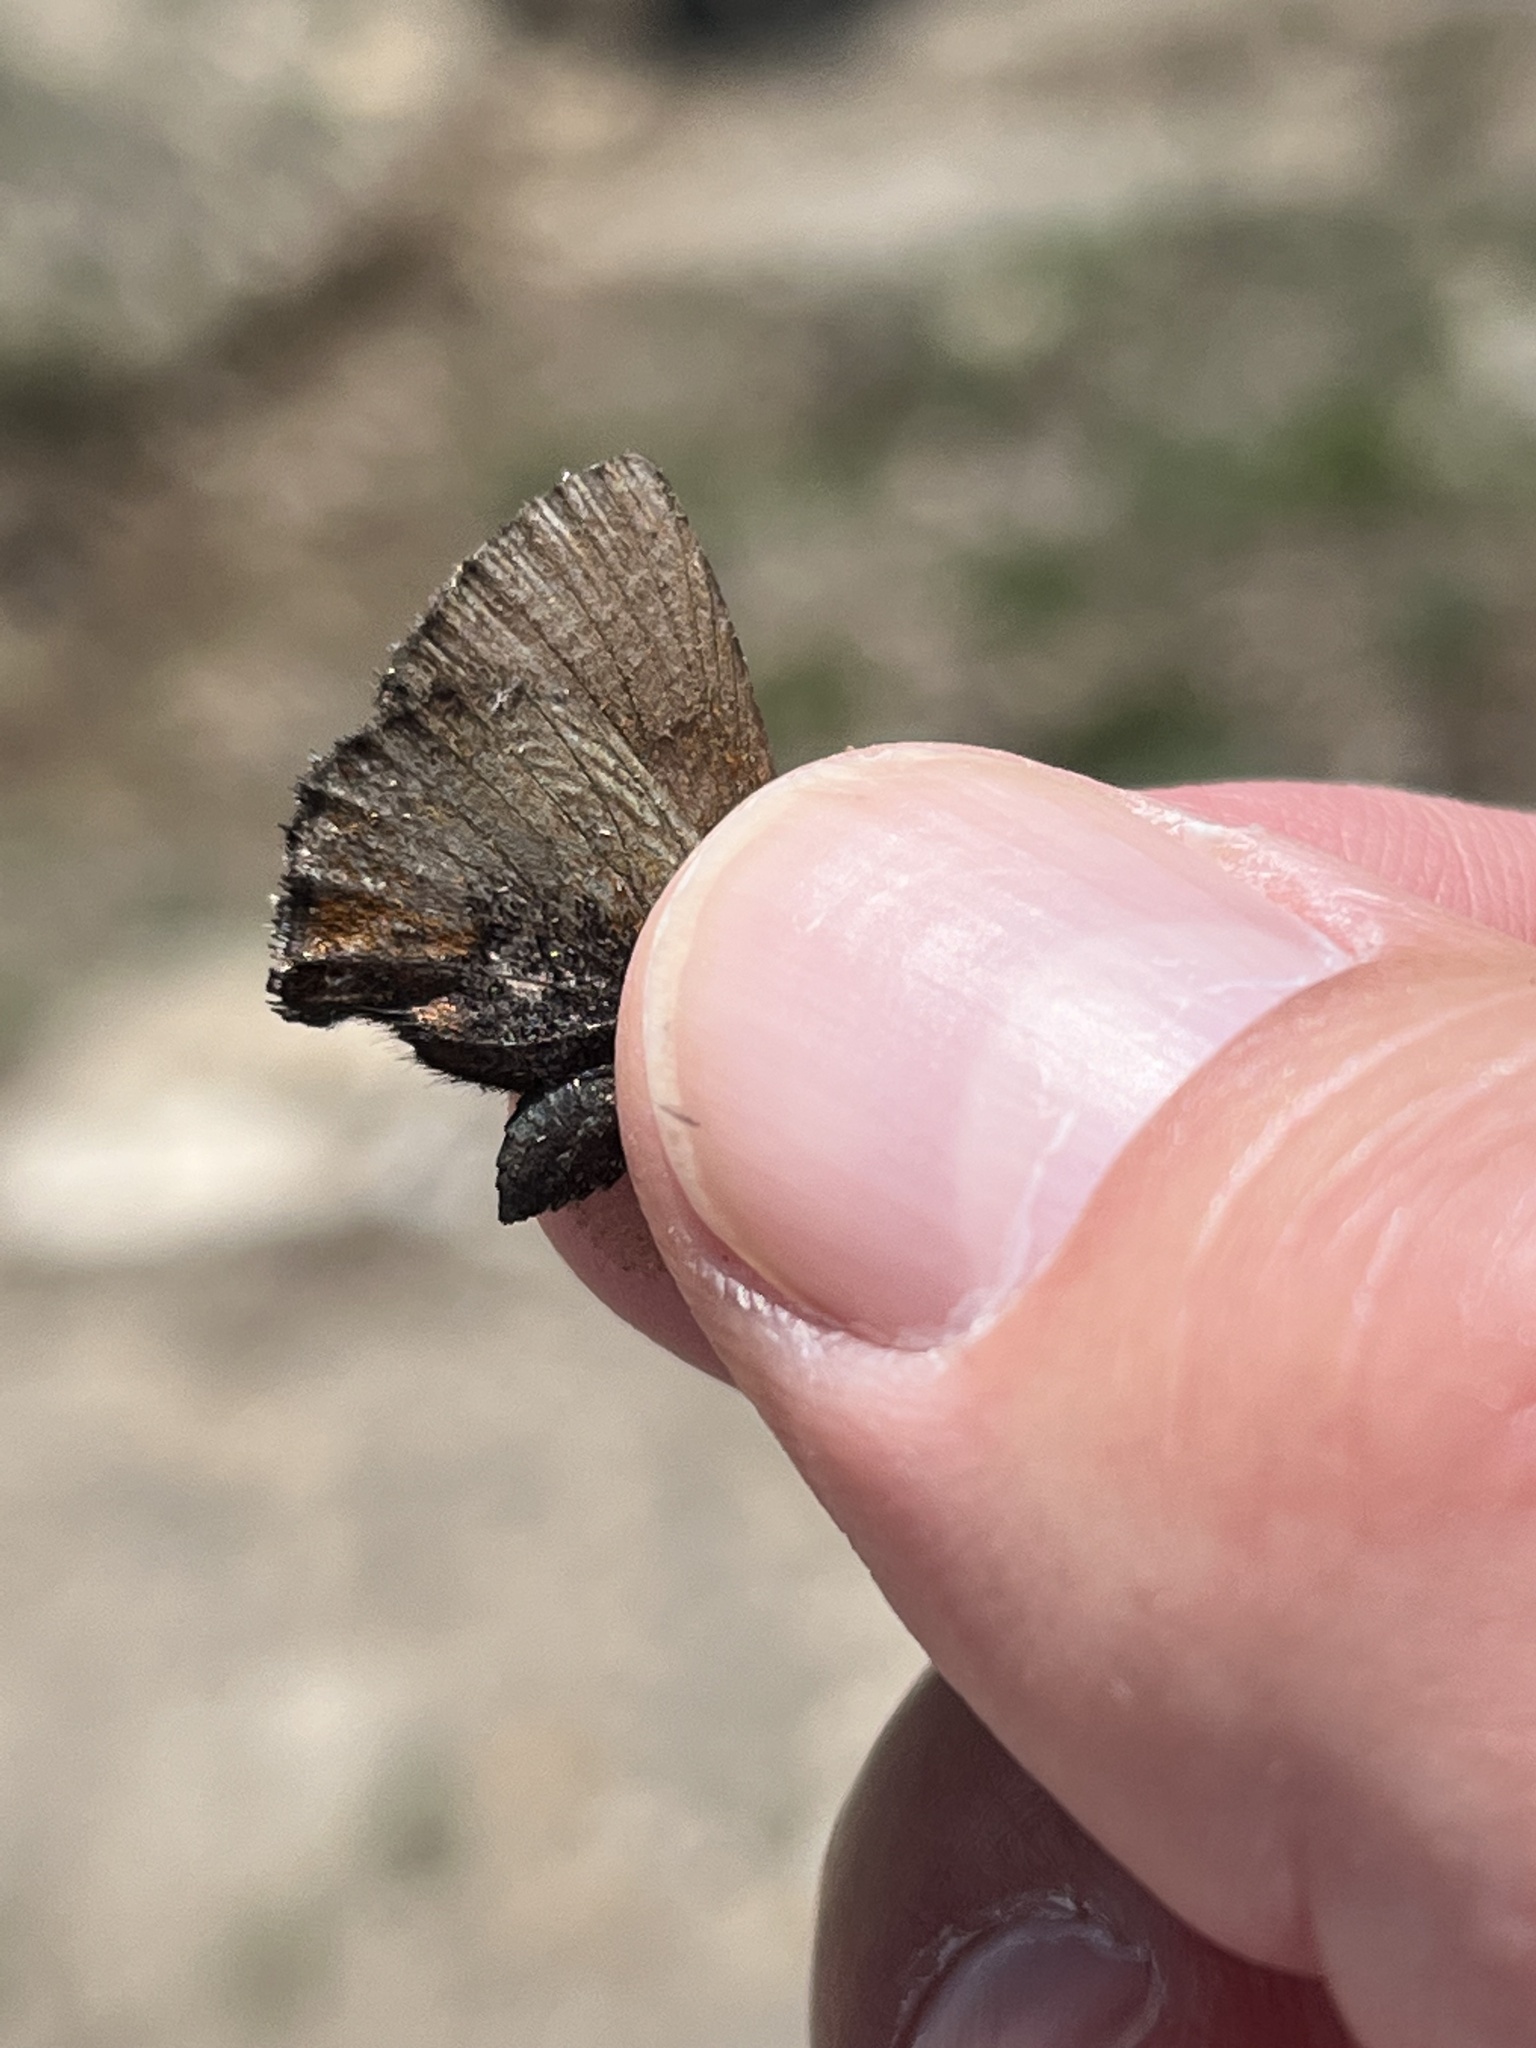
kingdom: Animalia
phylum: Arthropoda
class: Insecta
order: Lepidoptera
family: Lycaenidae
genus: Incisalia
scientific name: Incisalia irioides
